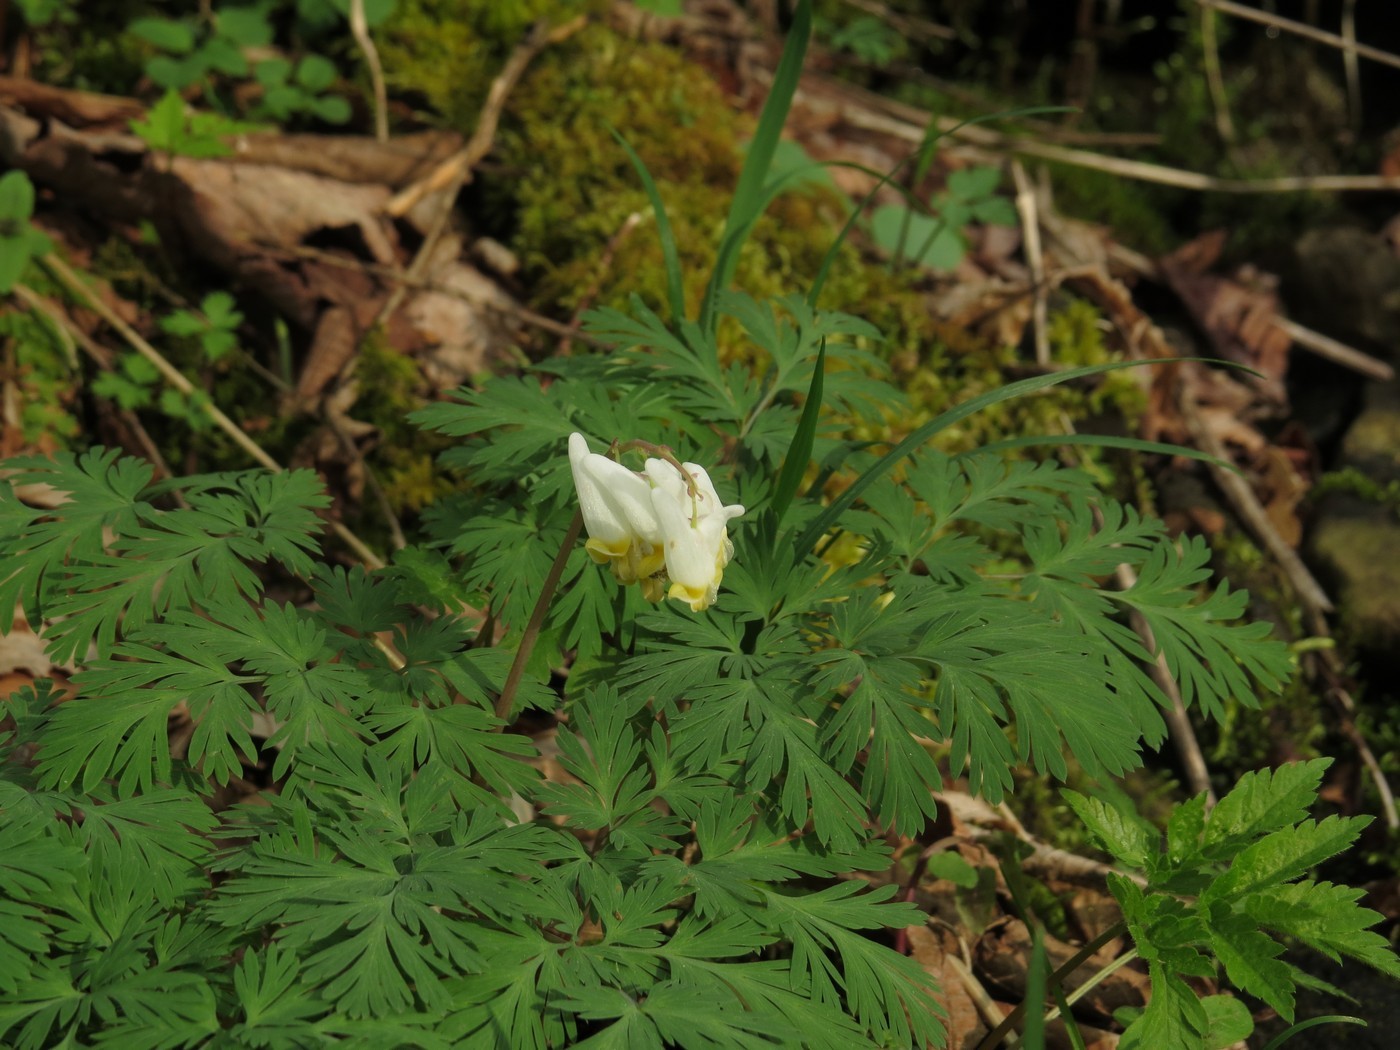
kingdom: Plantae
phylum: Tracheophyta
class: Magnoliopsida
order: Ranunculales
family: Papaveraceae
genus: Dicentra
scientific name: Dicentra cucullaria
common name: Dutchman's breeches
